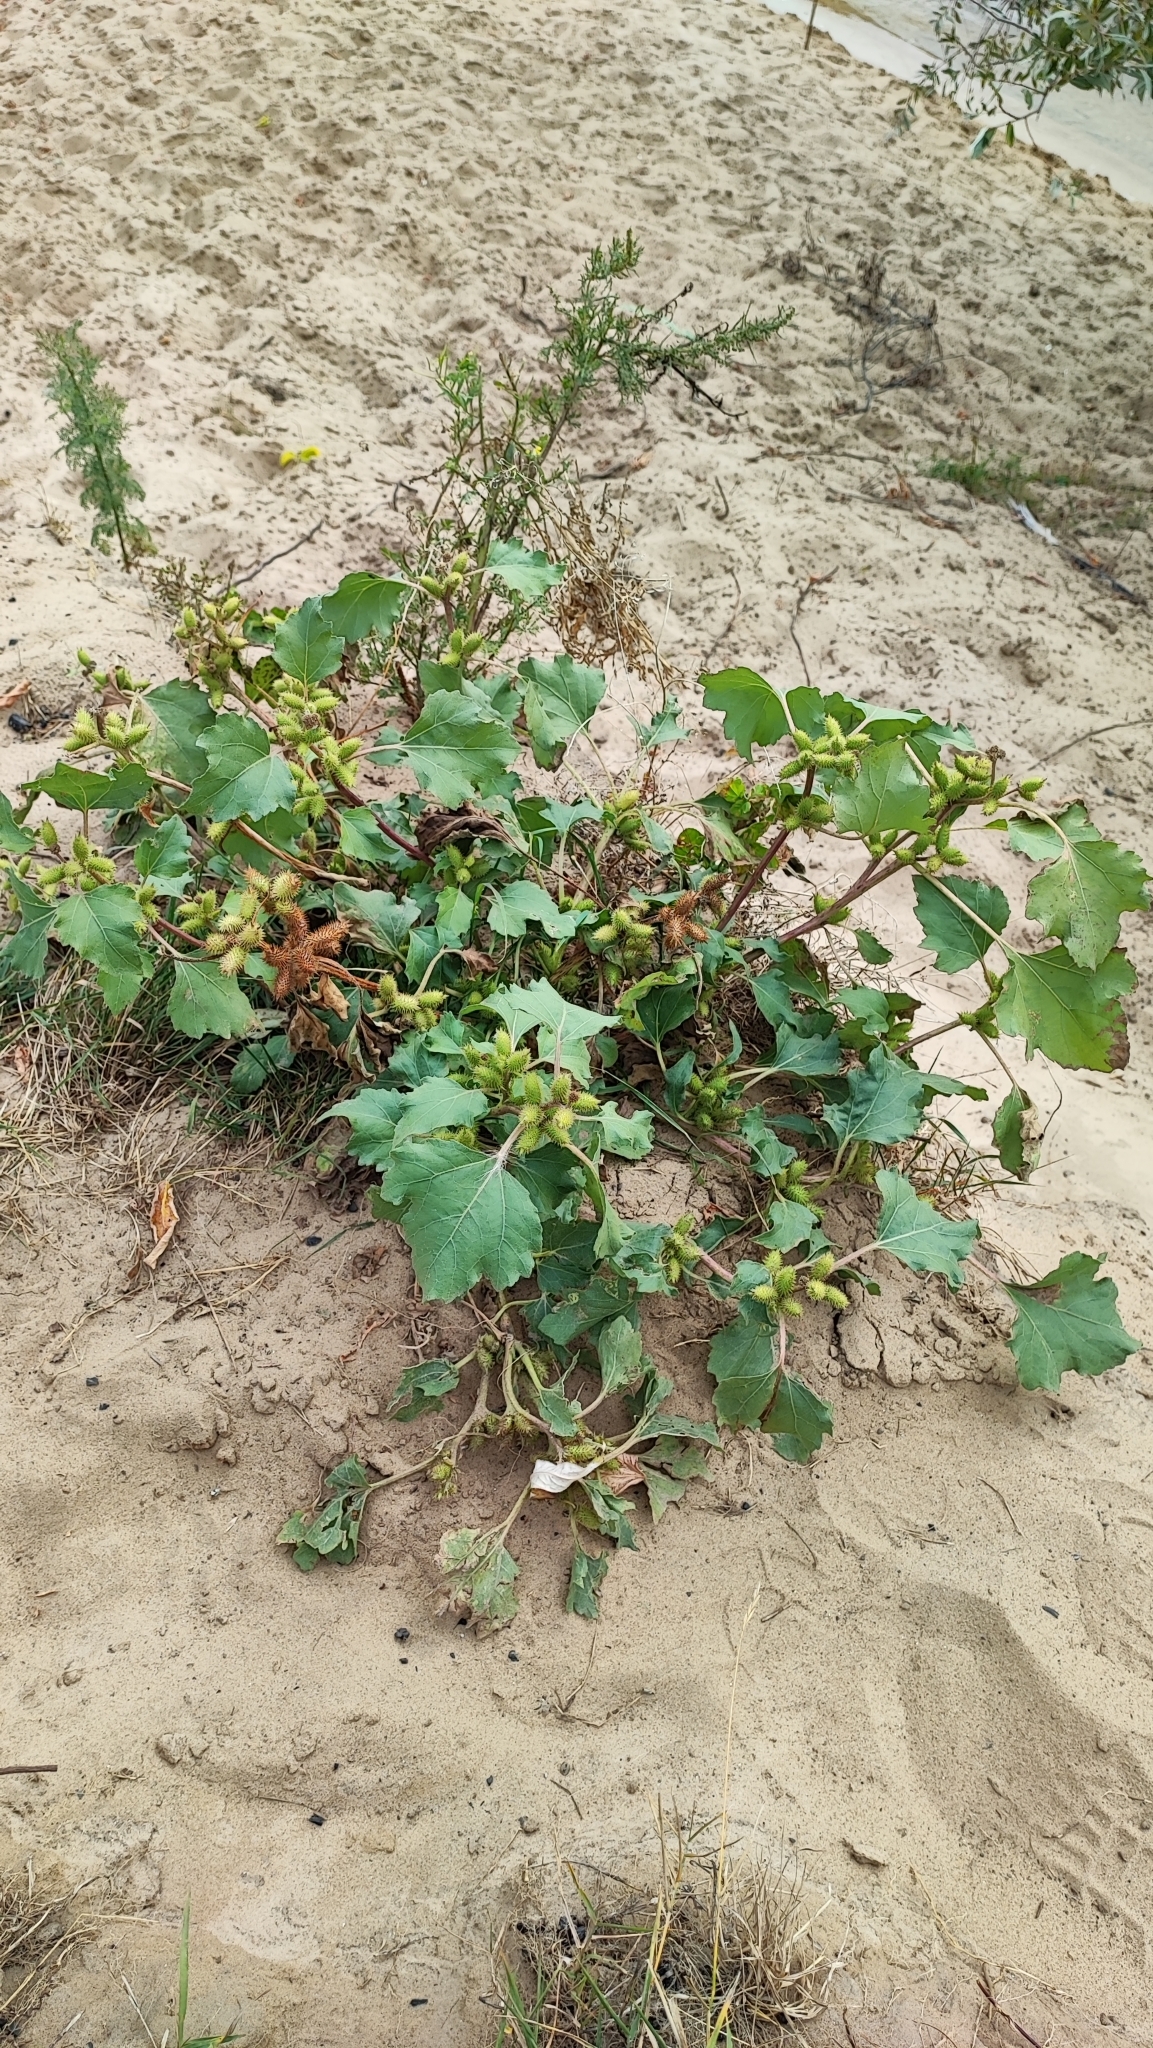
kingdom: Plantae
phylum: Tracheophyta
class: Magnoliopsida
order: Asterales
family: Asteraceae
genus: Xanthium
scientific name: Xanthium orientale
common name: Californian burr
